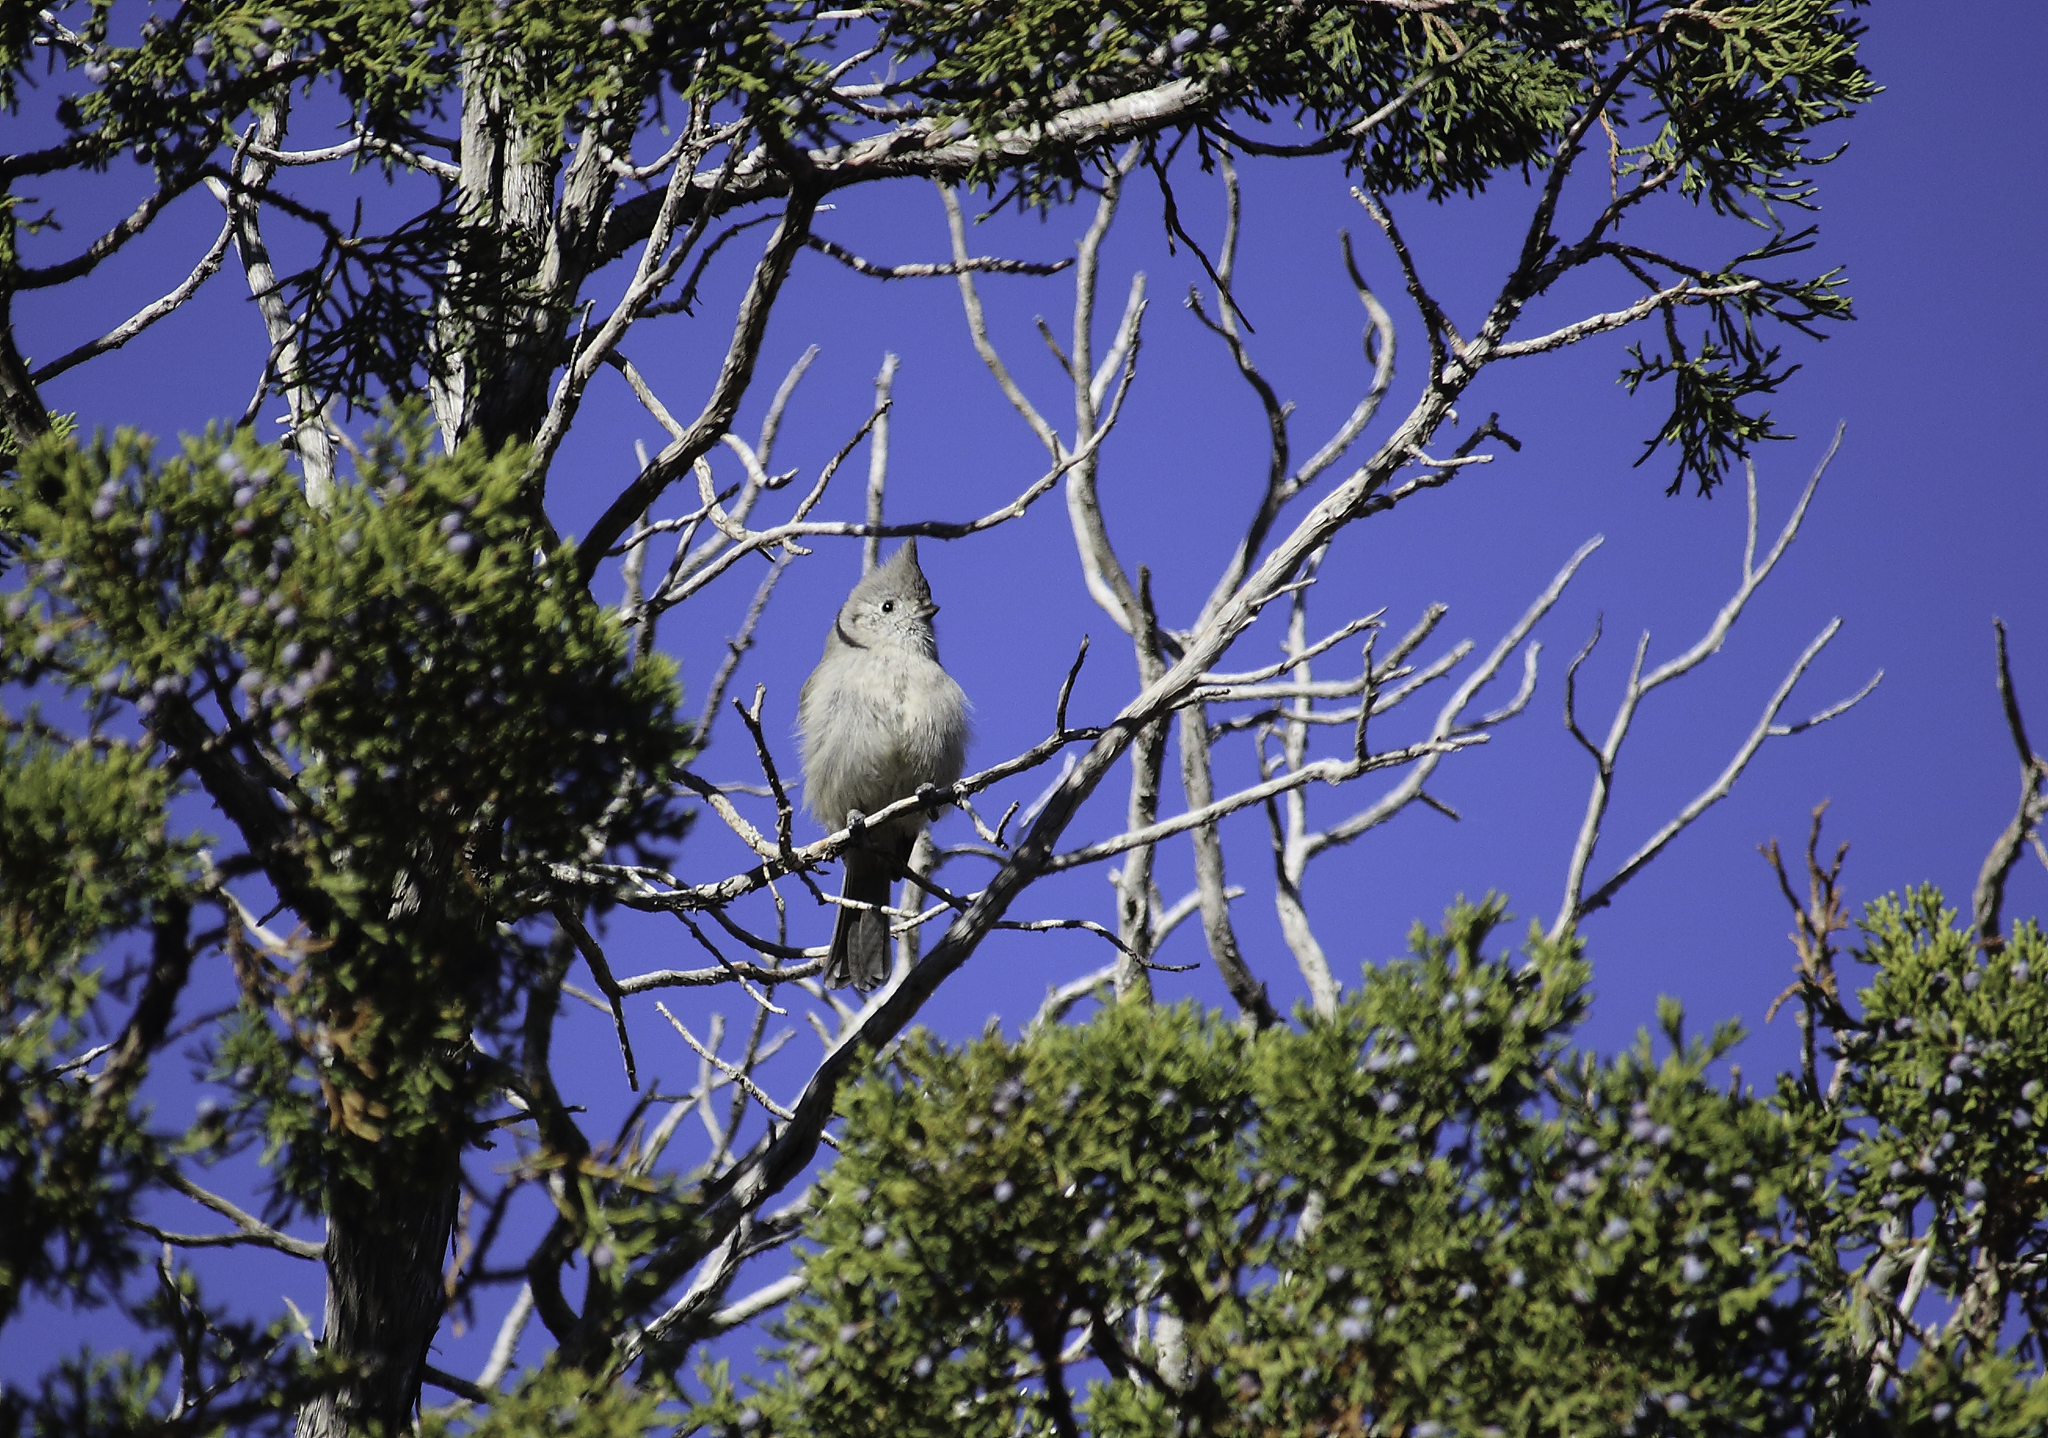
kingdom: Animalia
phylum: Chordata
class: Aves
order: Passeriformes
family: Paridae
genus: Baeolophus
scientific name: Baeolophus ridgwayi
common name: Juniper titmouse
